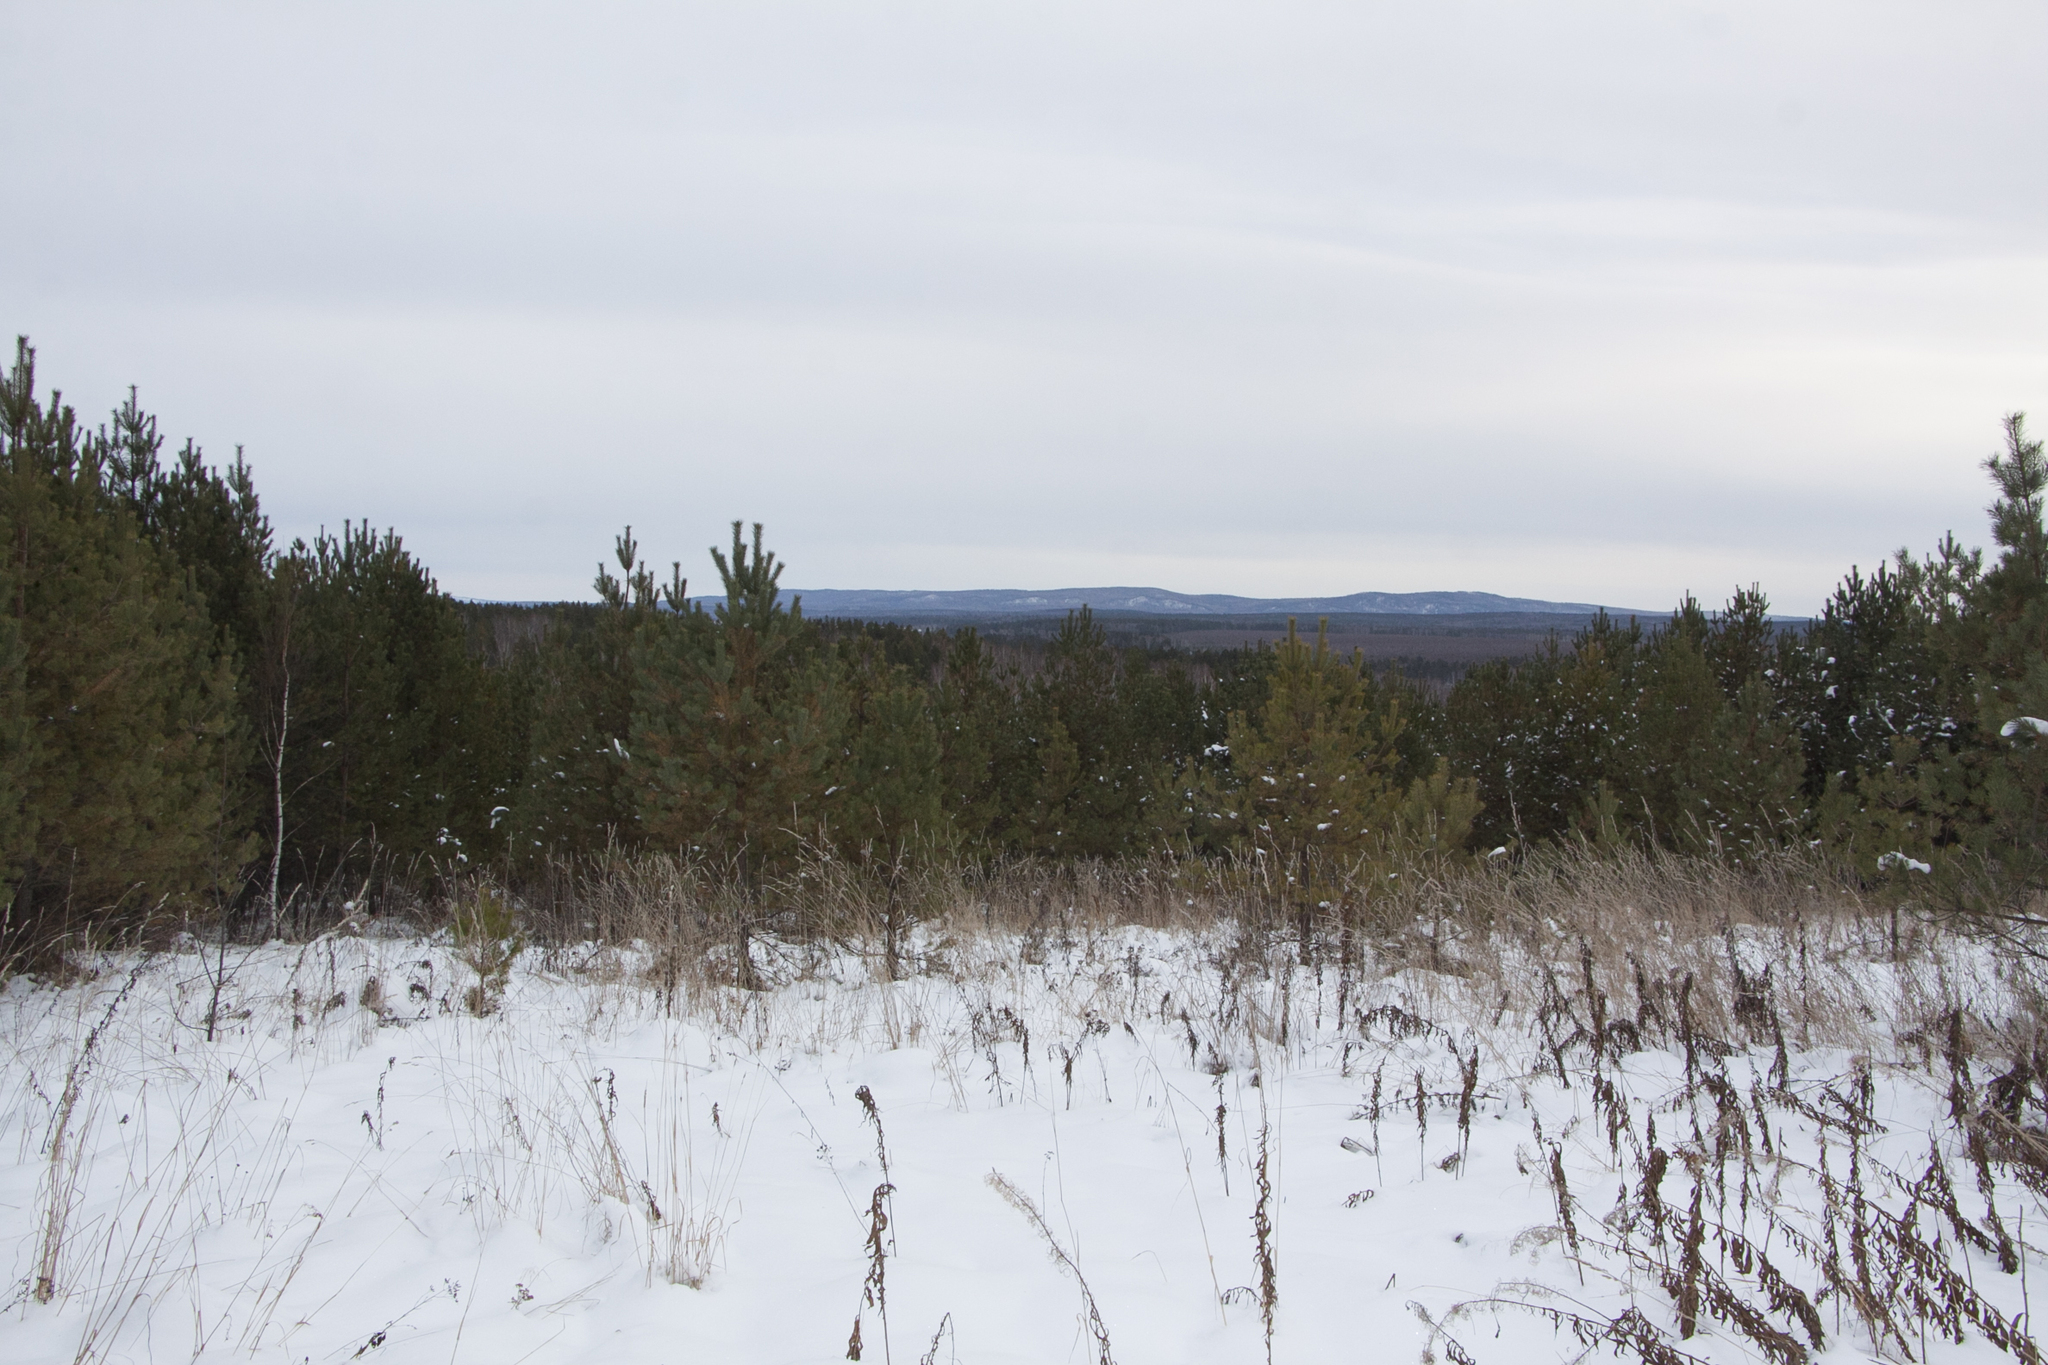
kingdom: Plantae
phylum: Tracheophyta
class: Pinopsida
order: Pinales
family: Pinaceae
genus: Pinus
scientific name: Pinus sylvestris
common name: Scots pine
